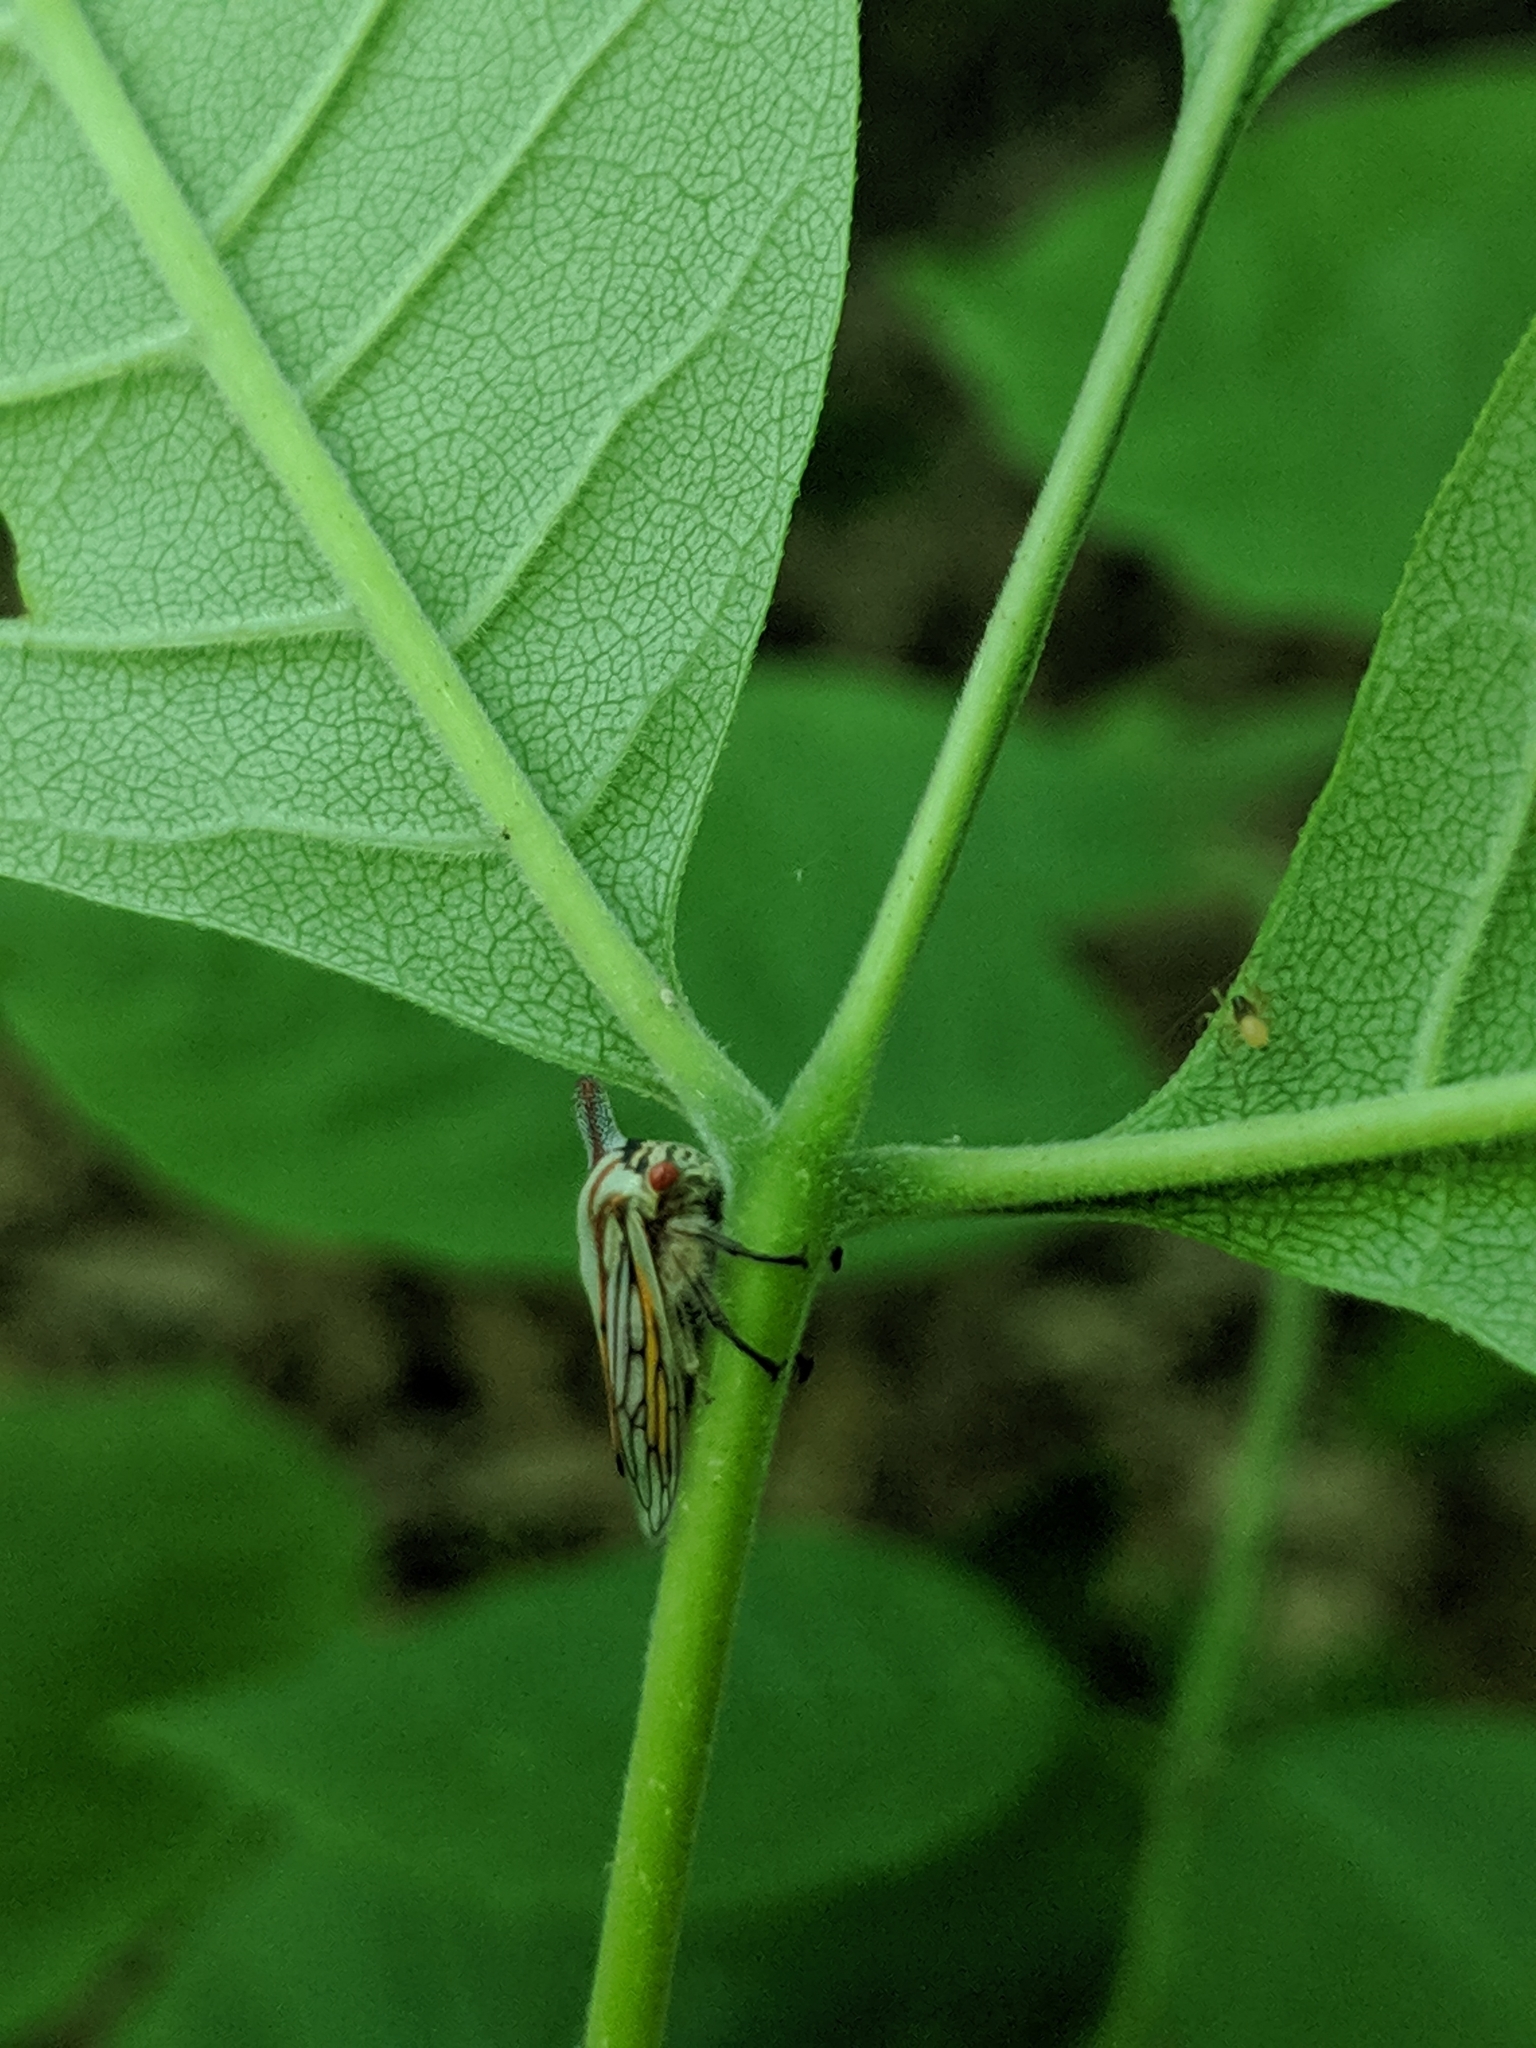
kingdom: Animalia
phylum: Arthropoda
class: Insecta
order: Hemiptera
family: Membracidae
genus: Platycotis
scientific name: Platycotis vittatus
